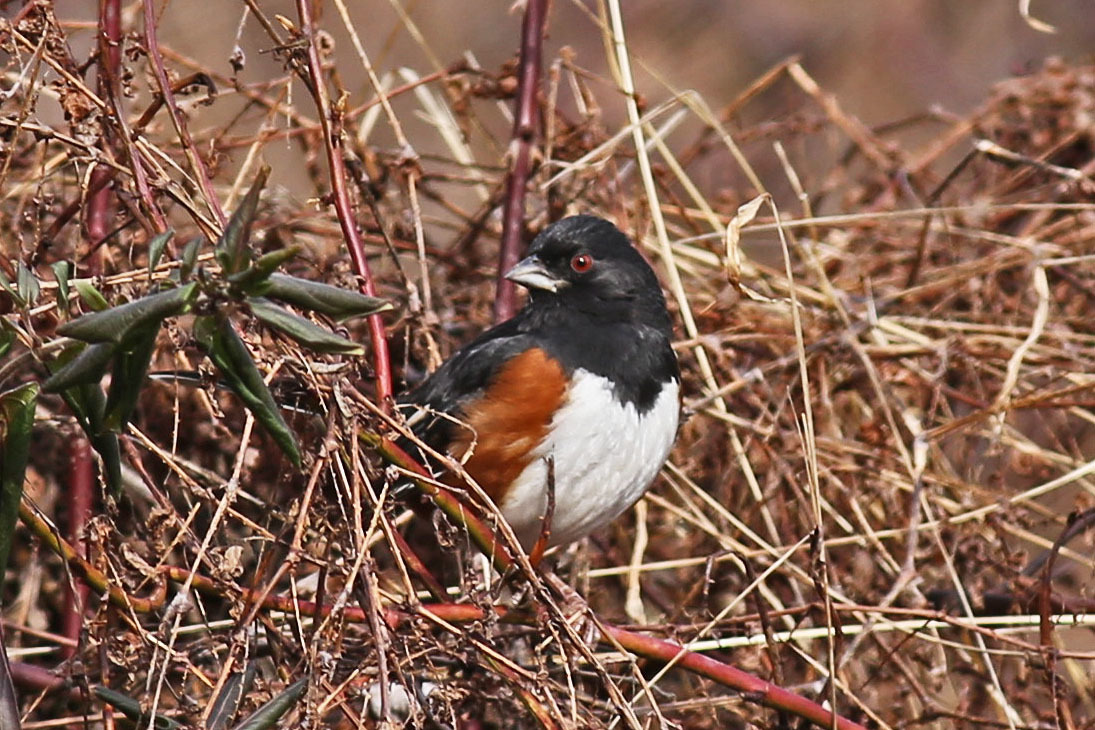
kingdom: Animalia
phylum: Chordata
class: Aves
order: Passeriformes
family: Passerellidae
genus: Pipilo
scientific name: Pipilo erythrophthalmus
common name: Eastern towhee
